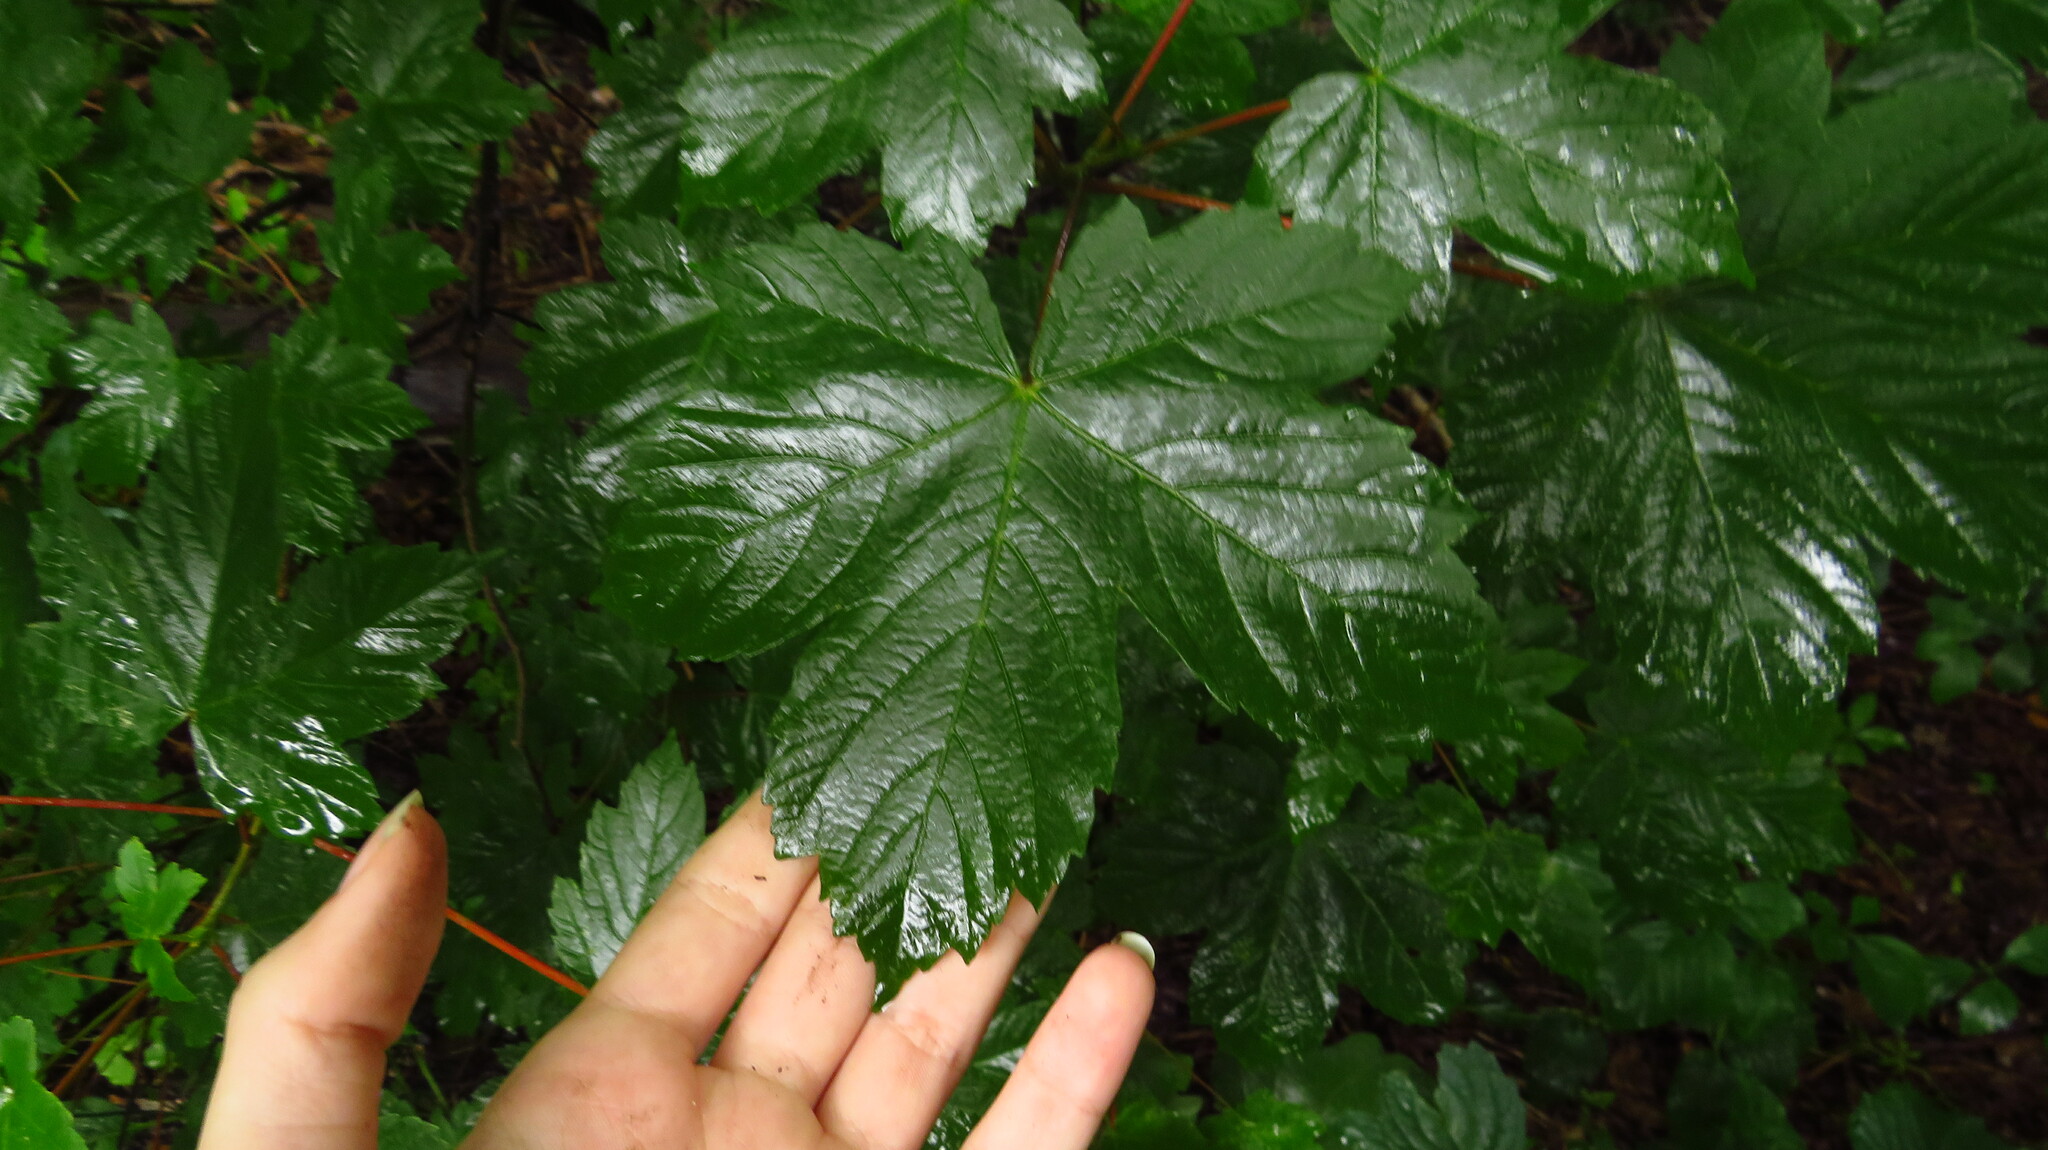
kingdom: Plantae
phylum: Tracheophyta
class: Magnoliopsida
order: Sapindales
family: Sapindaceae
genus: Acer
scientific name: Acer pseudoplatanus
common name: Sycamore
